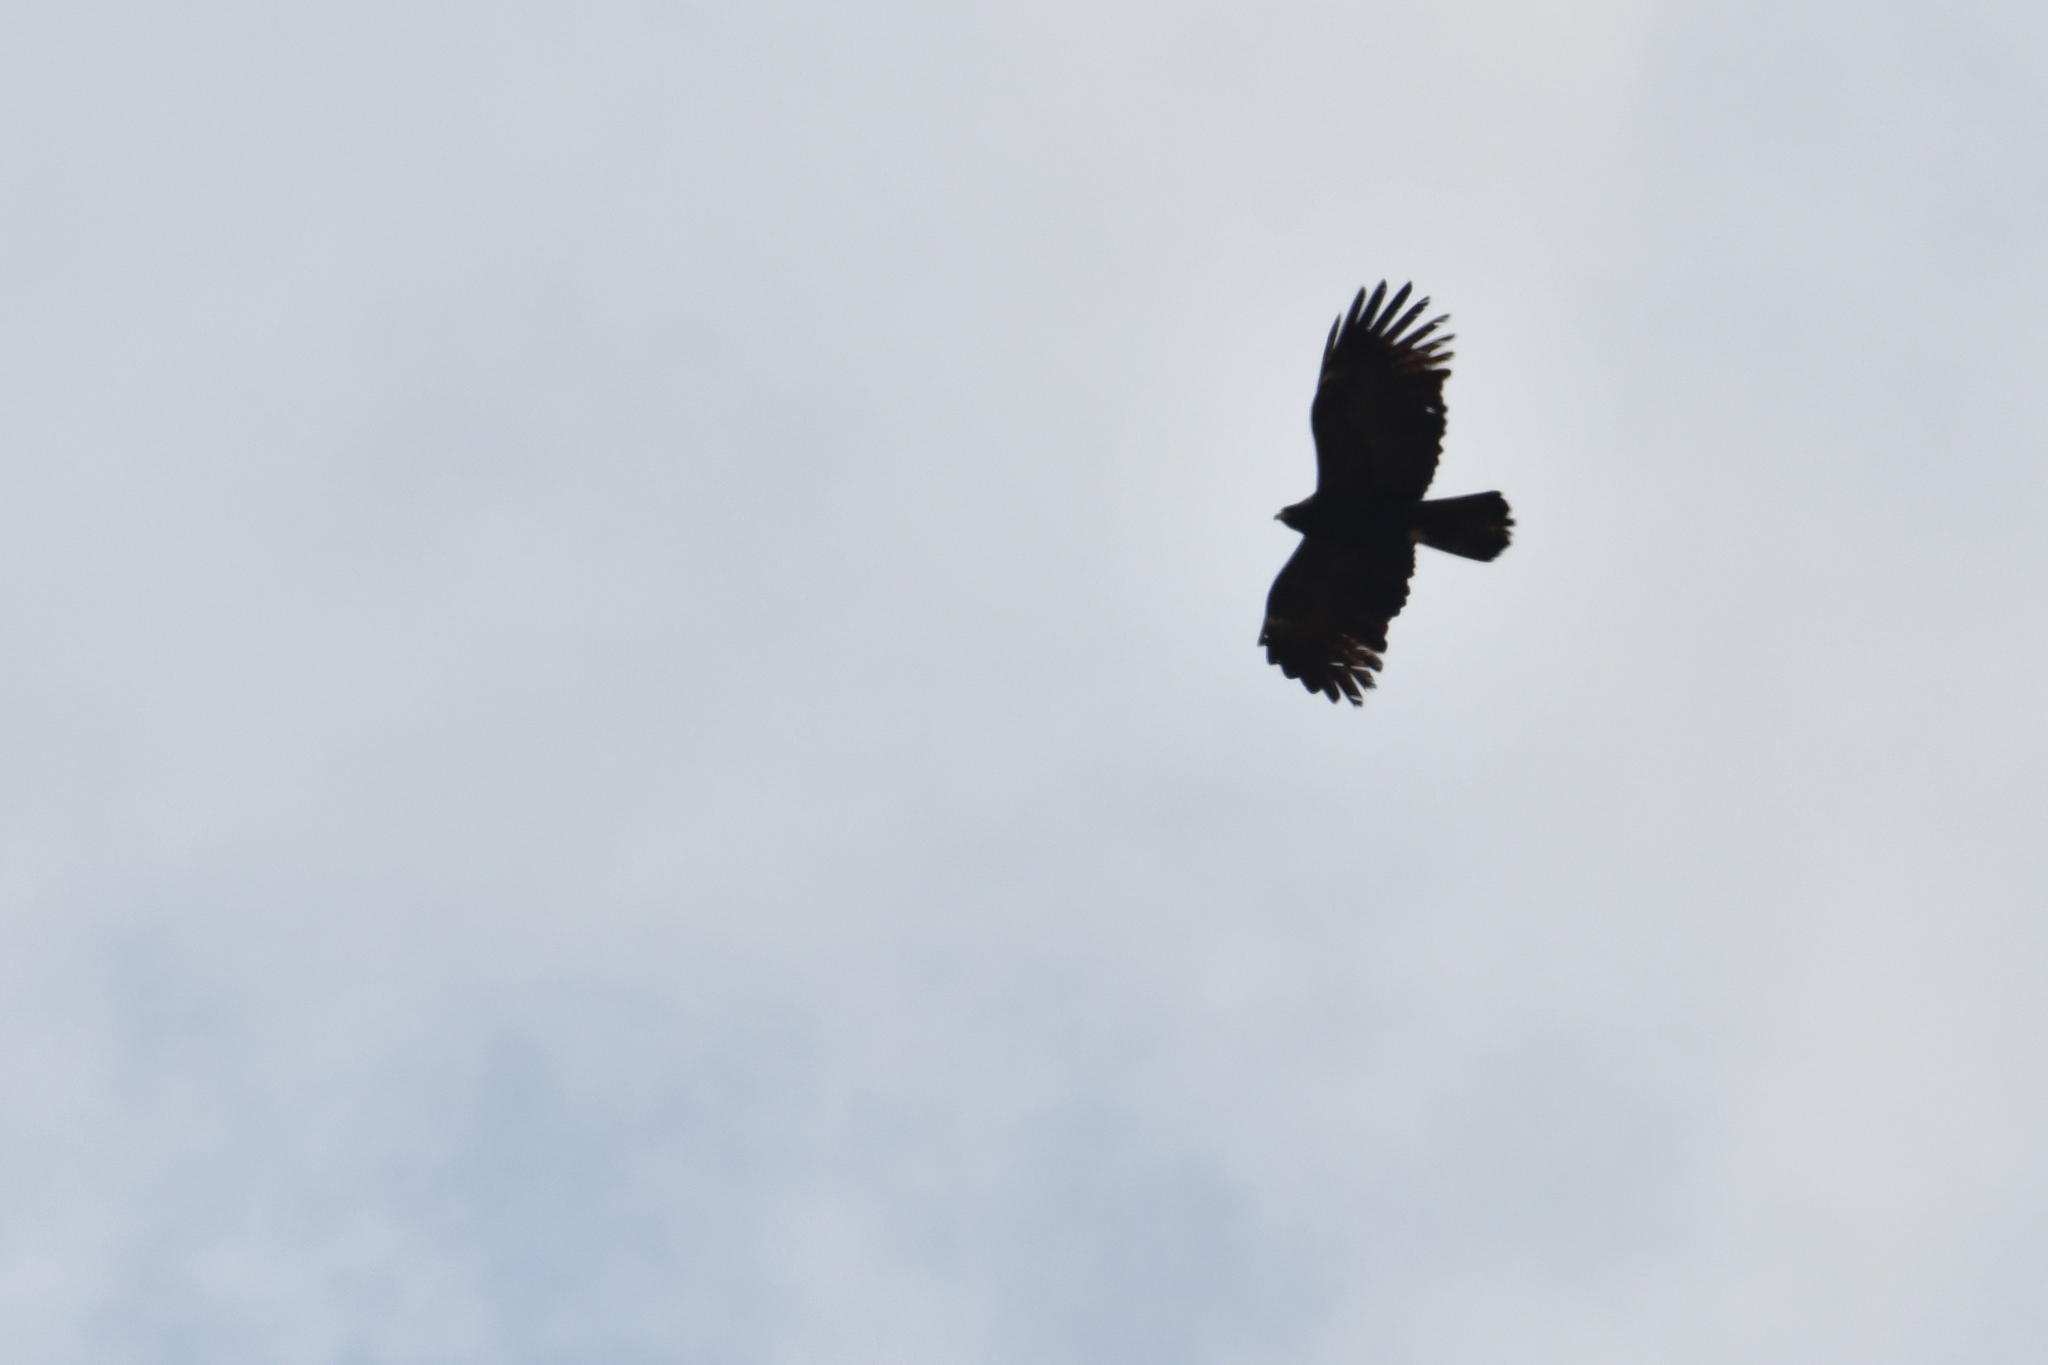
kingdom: Animalia
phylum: Chordata
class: Aves
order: Accipitriformes
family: Accipitridae
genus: Ictinaetus
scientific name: Ictinaetus malayensis
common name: Black eagle
